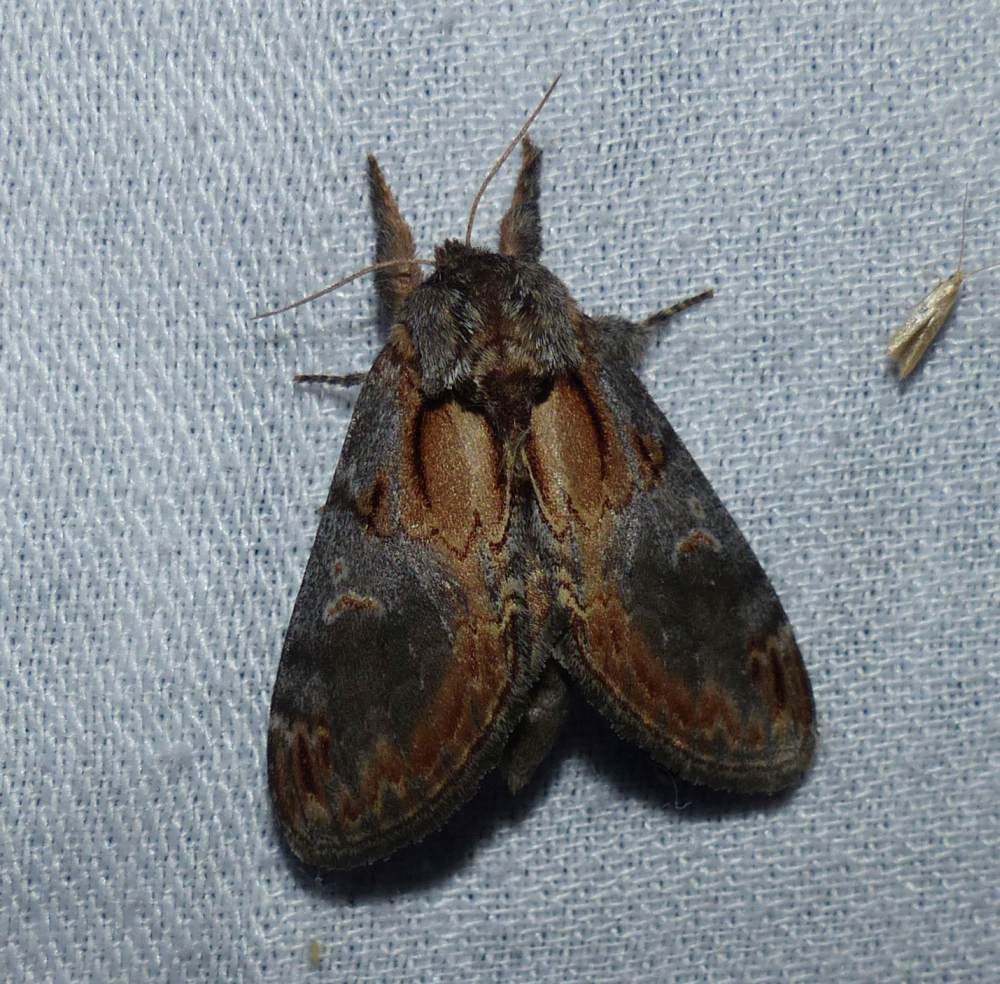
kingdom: Animalia
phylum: Arthropoda
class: Insecta
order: Lepidoptera
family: Notodontidae
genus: Notodonta
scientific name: Notodonta scitipennis
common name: Finned-willow prominent moth
